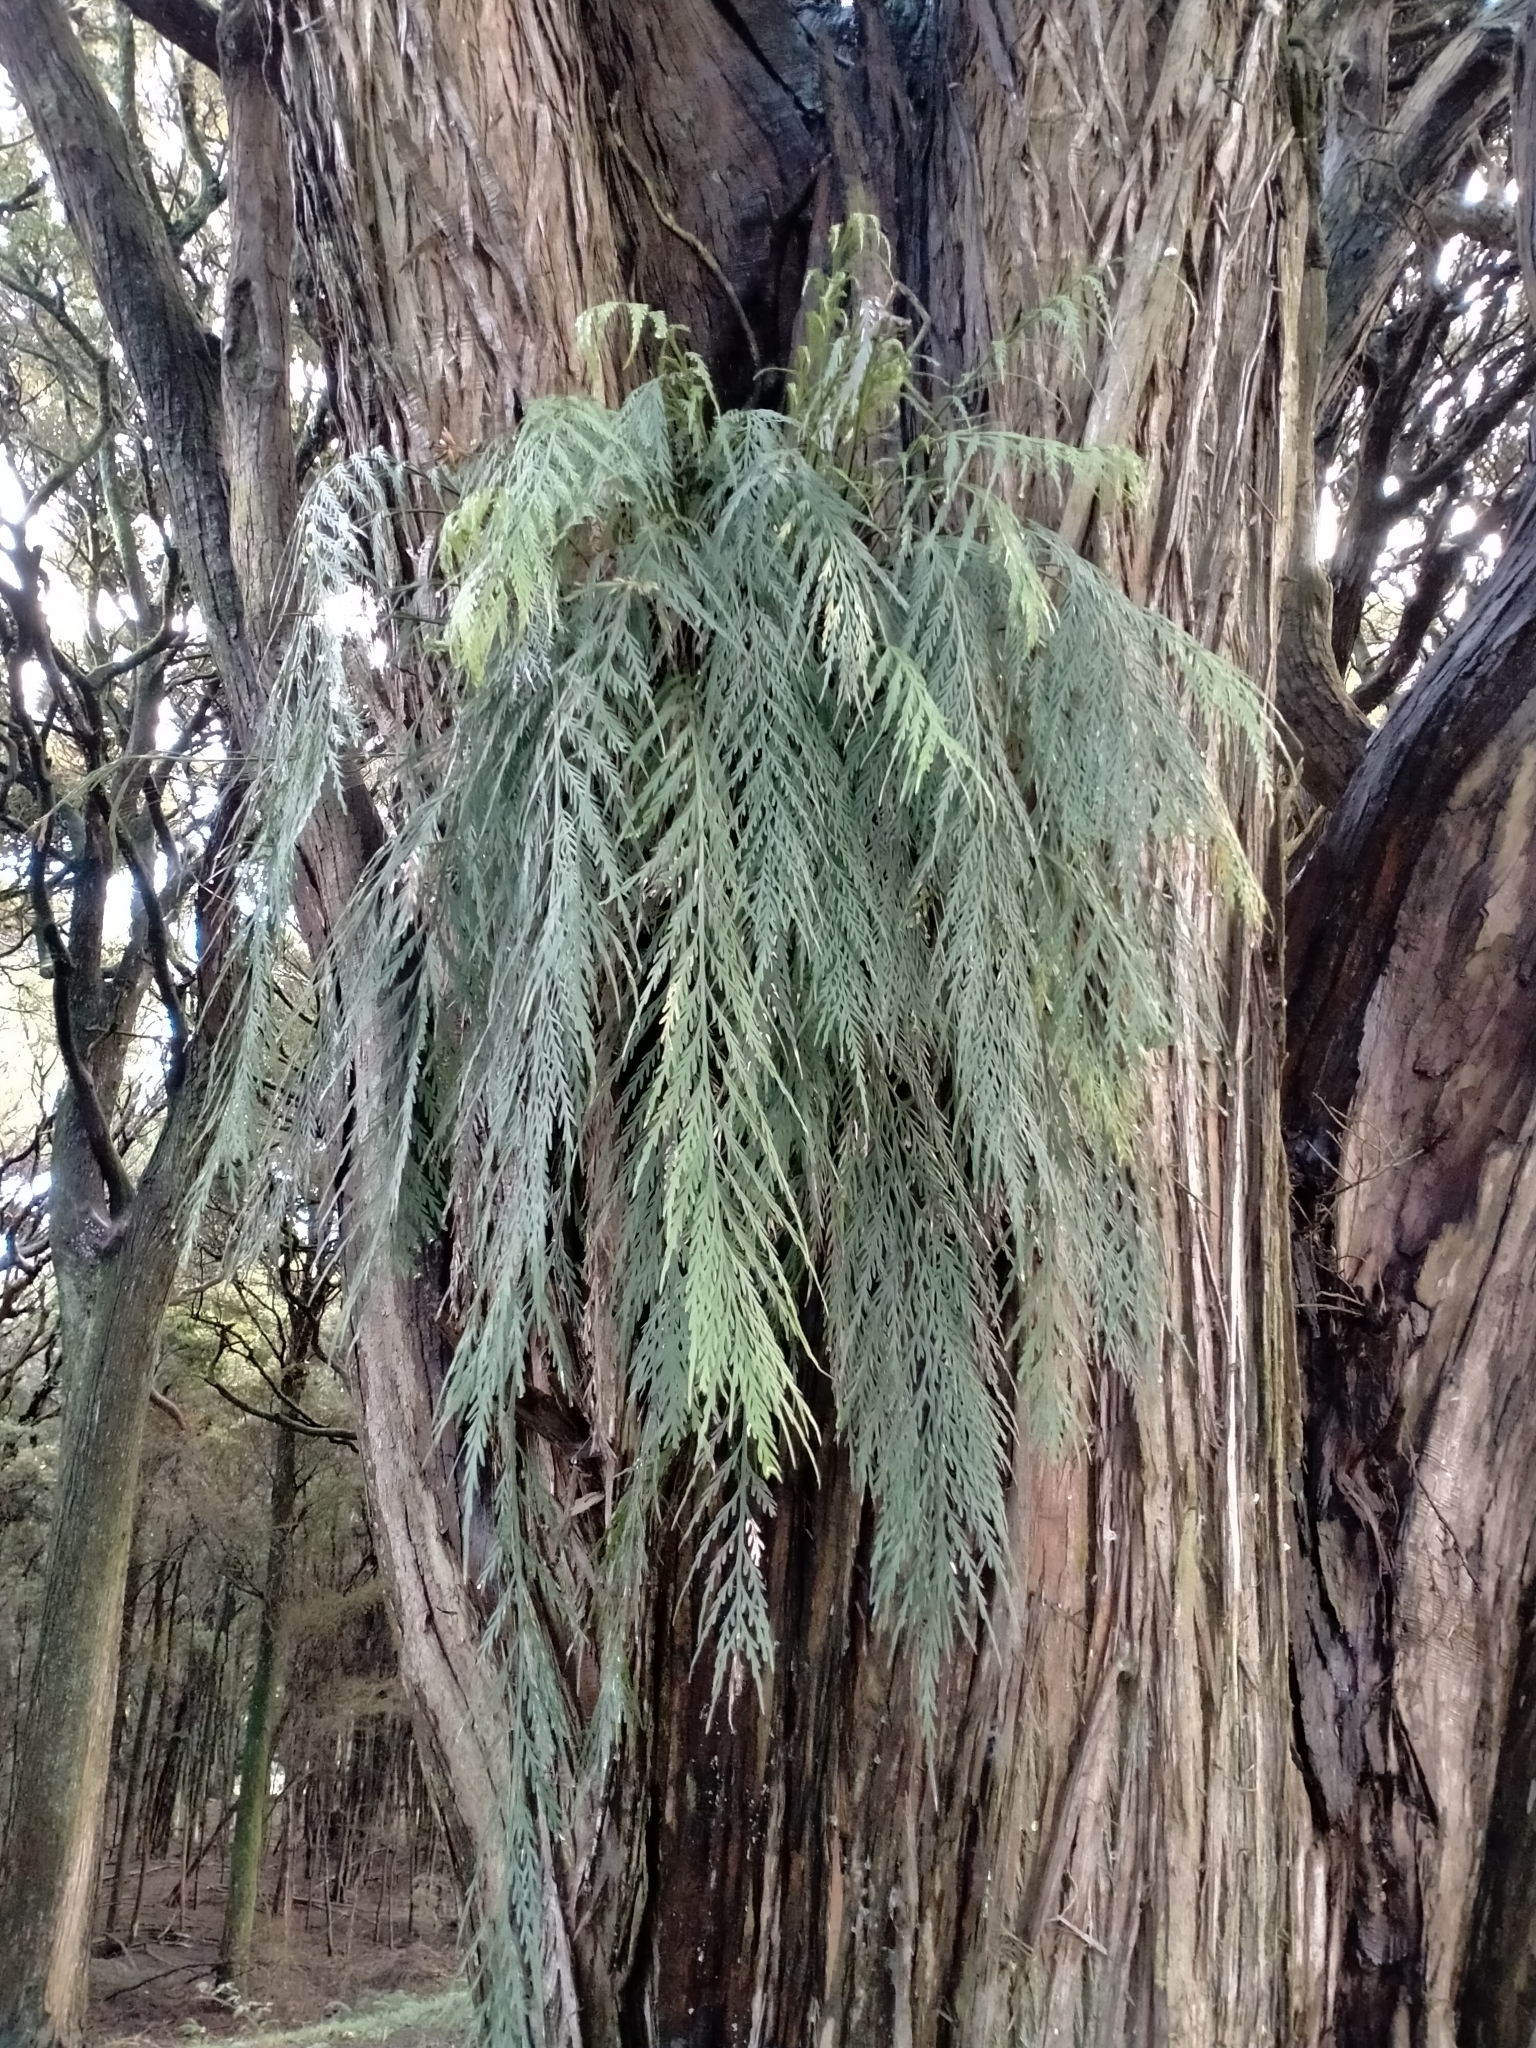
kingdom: Plantae
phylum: Tracheophyta
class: Polypodiopsida
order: Polypodiales
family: Aspleniaceae
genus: Asplenium
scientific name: Asplenium flaccidum
